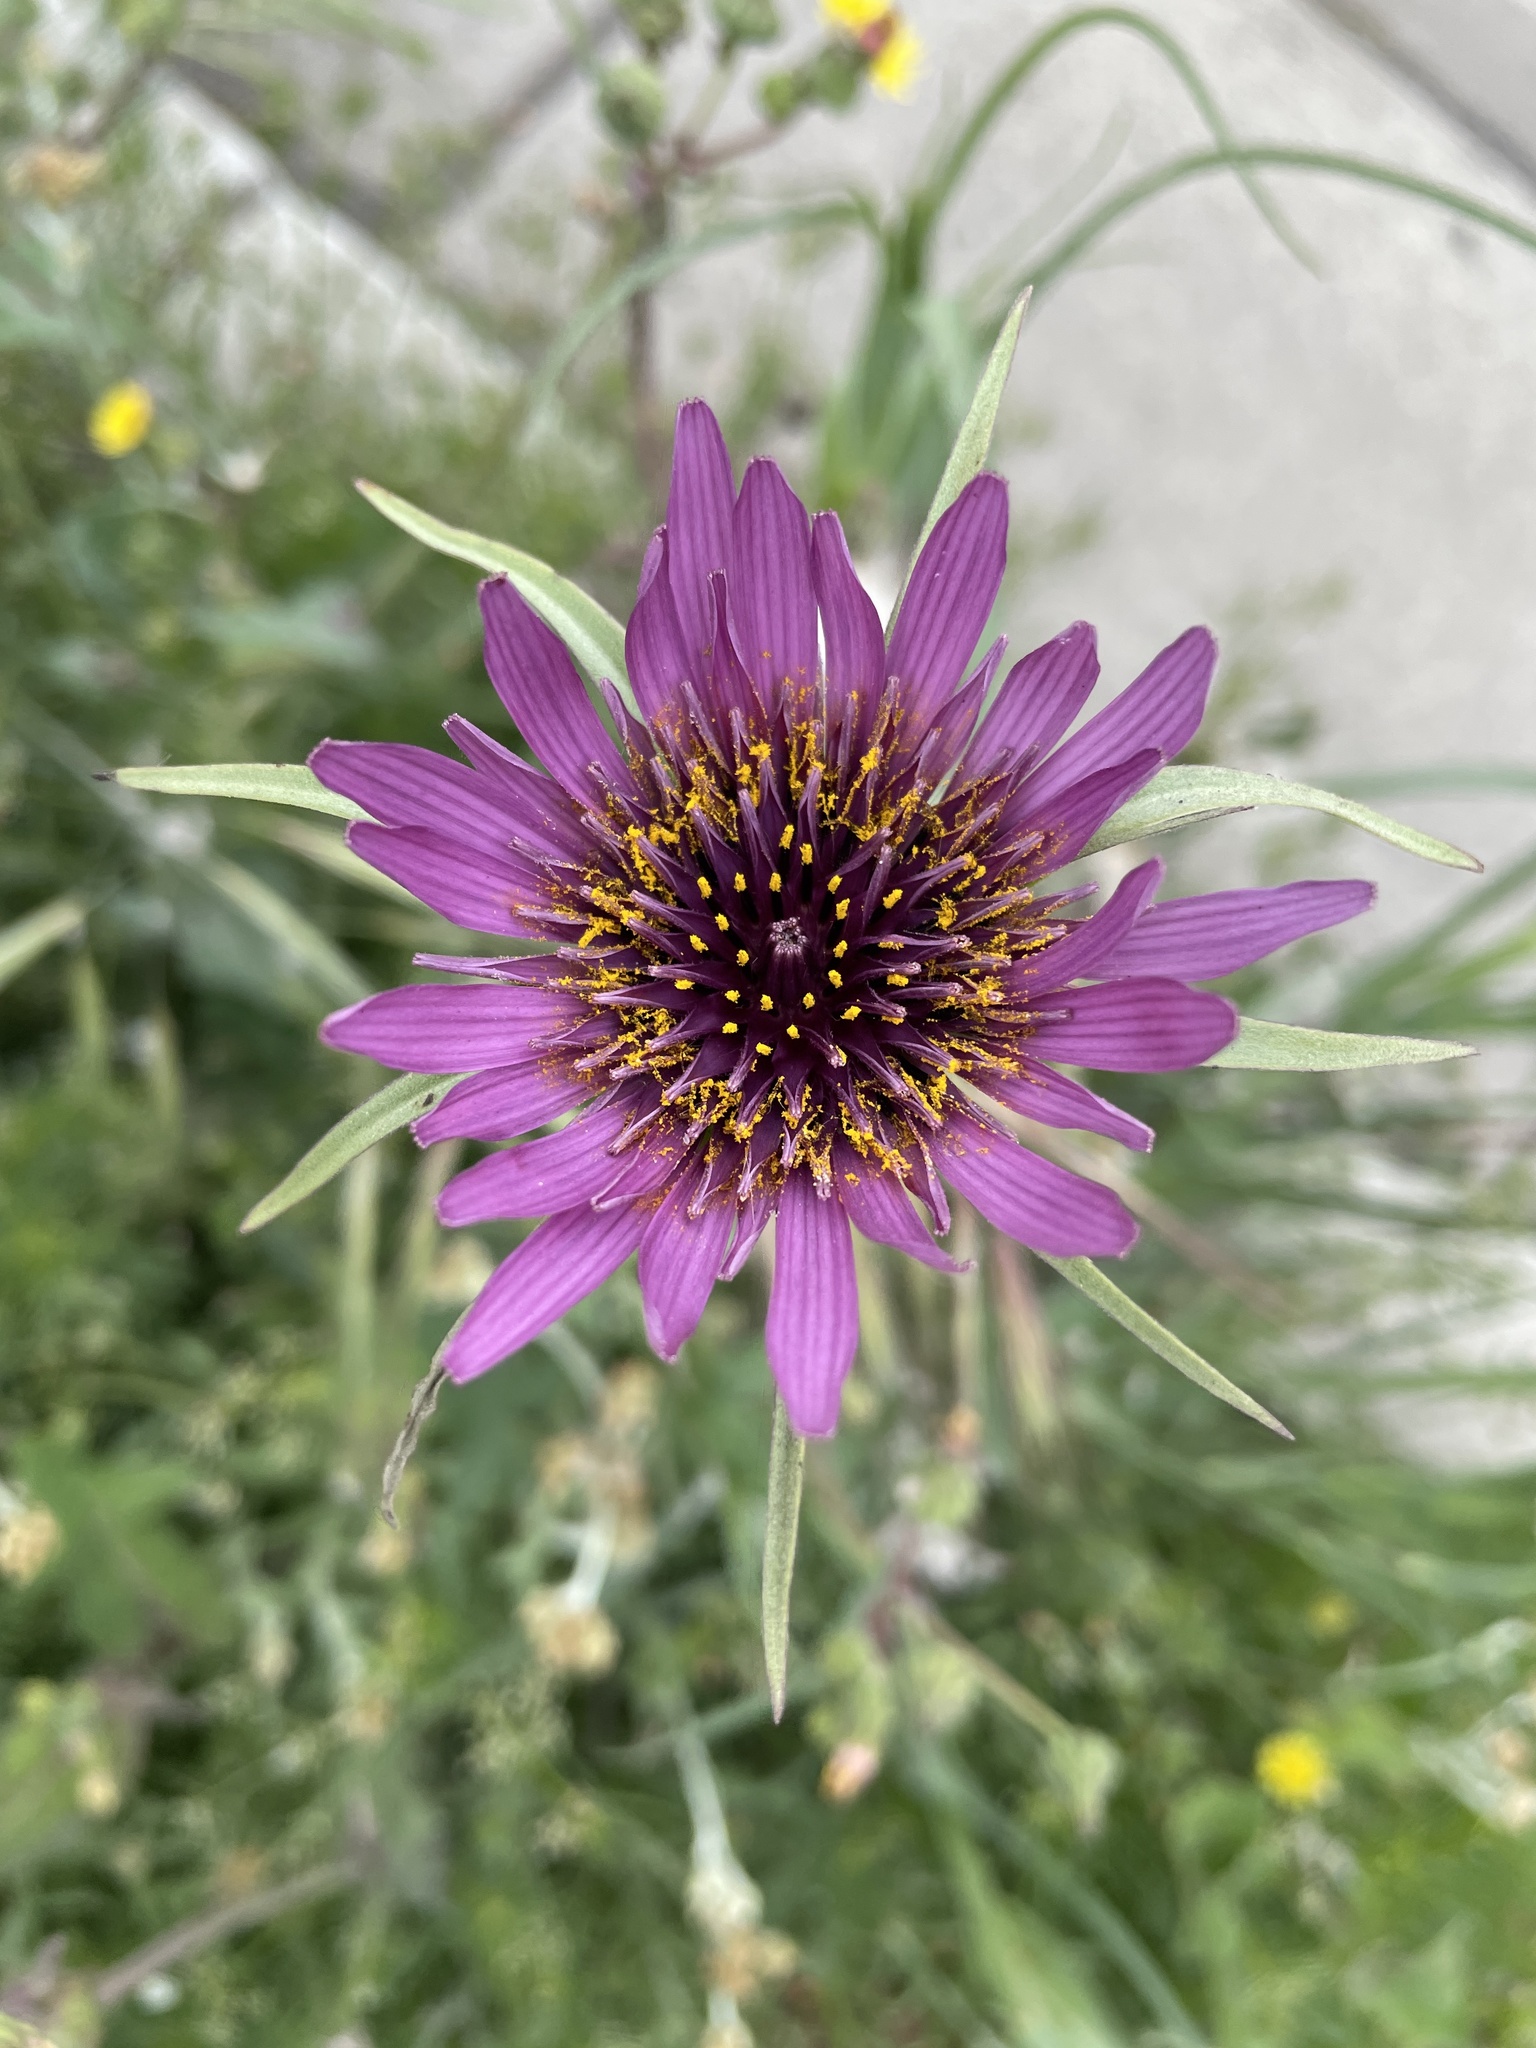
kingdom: Plantae
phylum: Tracheophyta
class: Magnoliopsida
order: Asterales
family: Asteraceae
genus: Tragopogon
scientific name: Tragopogon porrifolius
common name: Salsify
